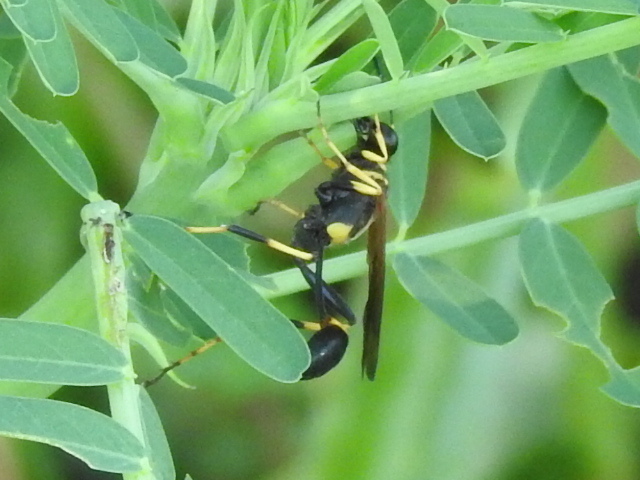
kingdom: Animalia
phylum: Arthropoda
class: Insecta
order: Hymenoptera
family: Sphecidae
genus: Sceliphron
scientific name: Sceliphron caementarium
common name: Mud dauber
